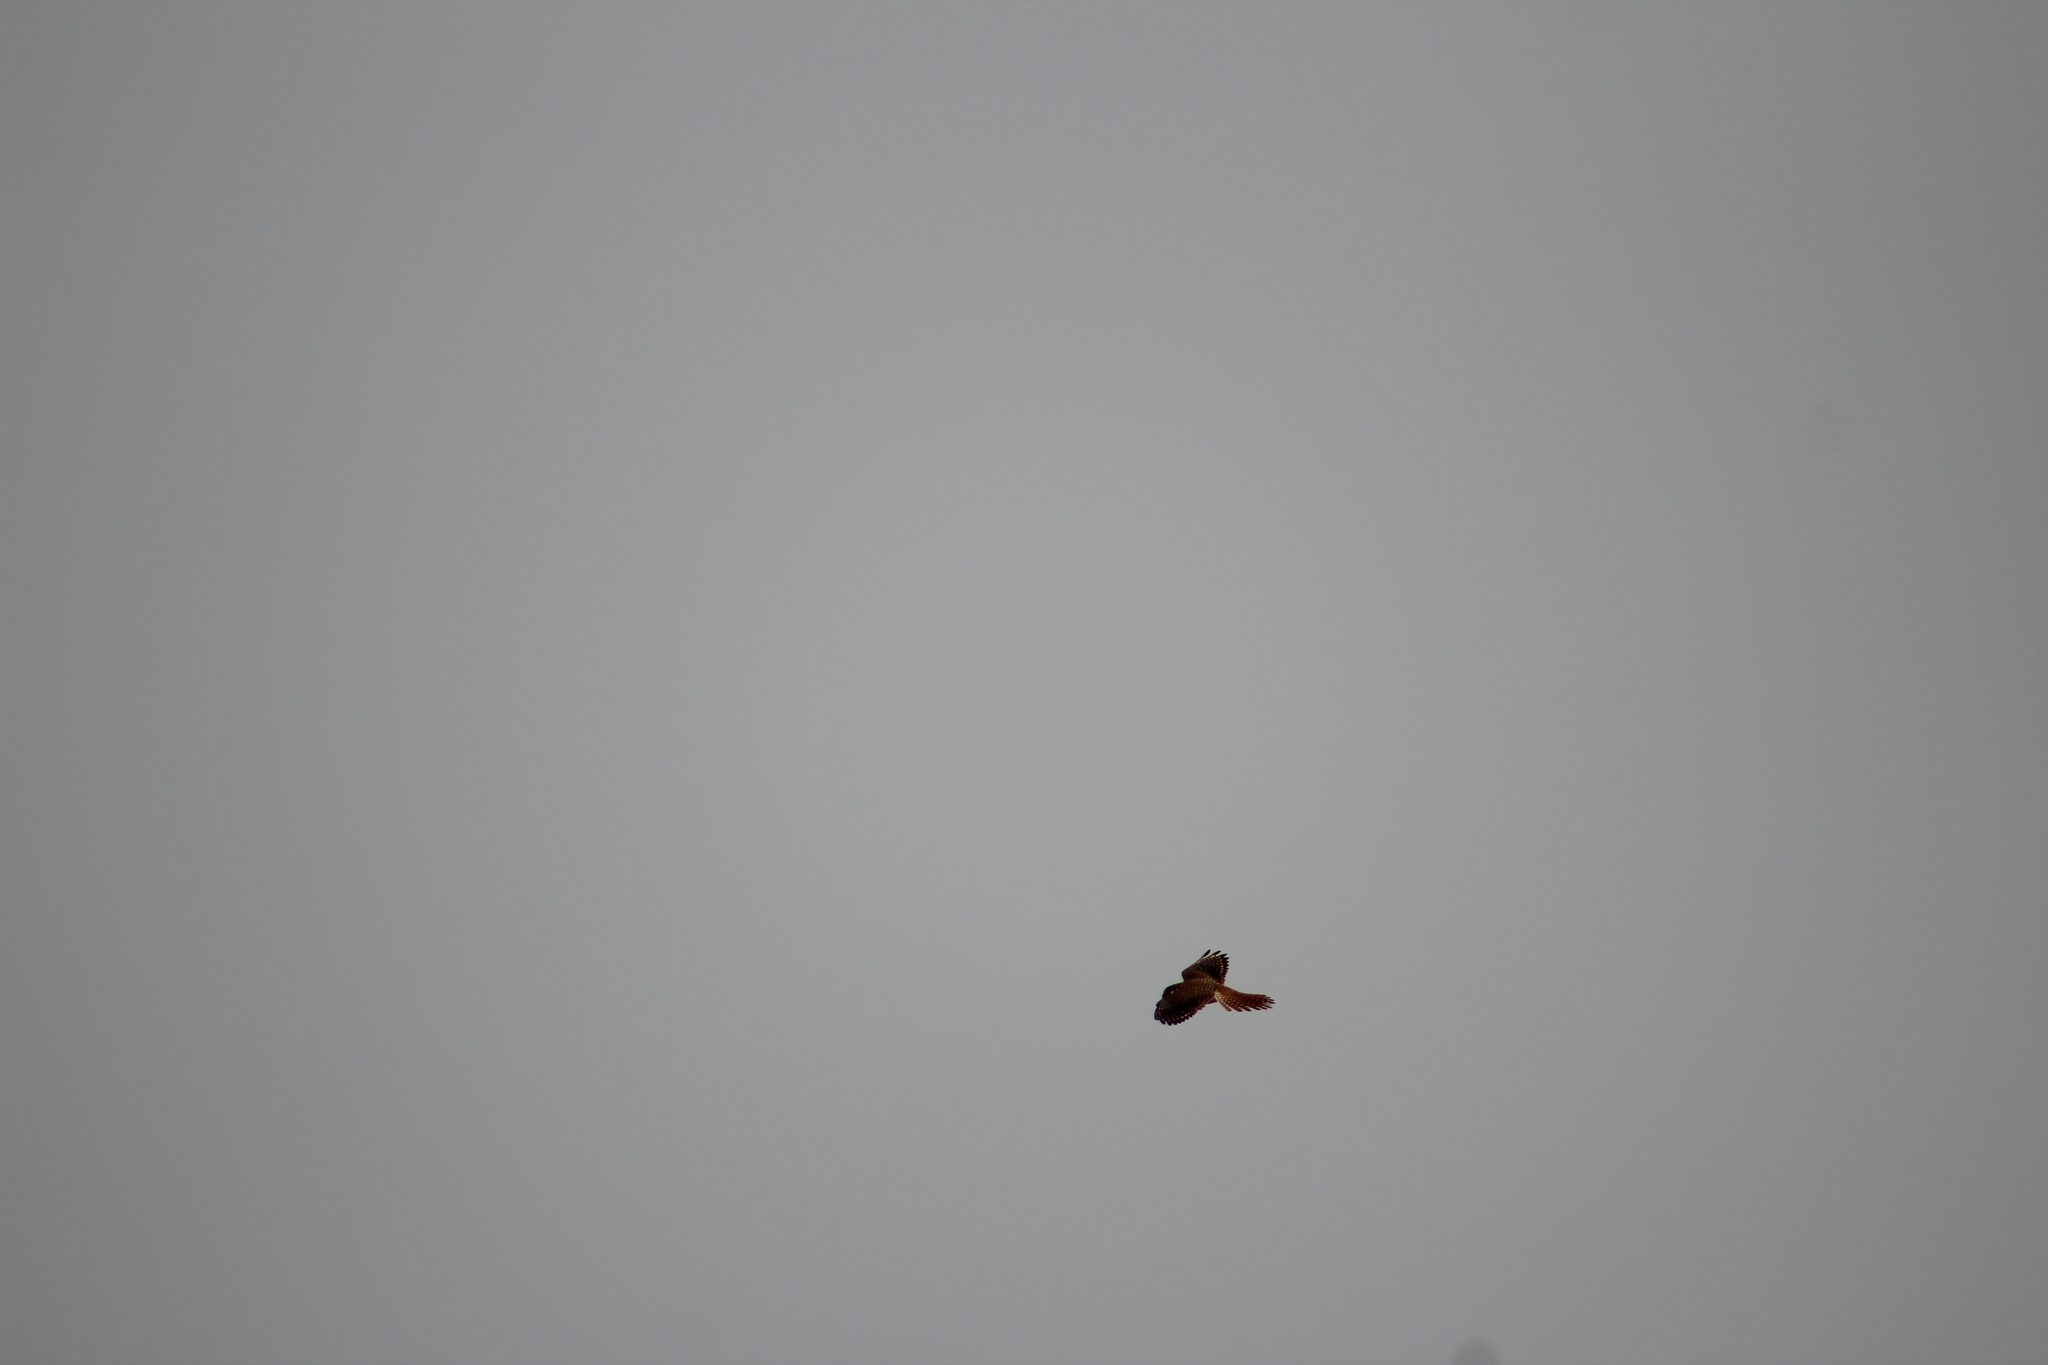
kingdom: Animalia
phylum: Chordata
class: Aves
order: Falconiformes
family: Falconidae
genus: Falco
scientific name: Falco sparverius
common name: American kestrel
